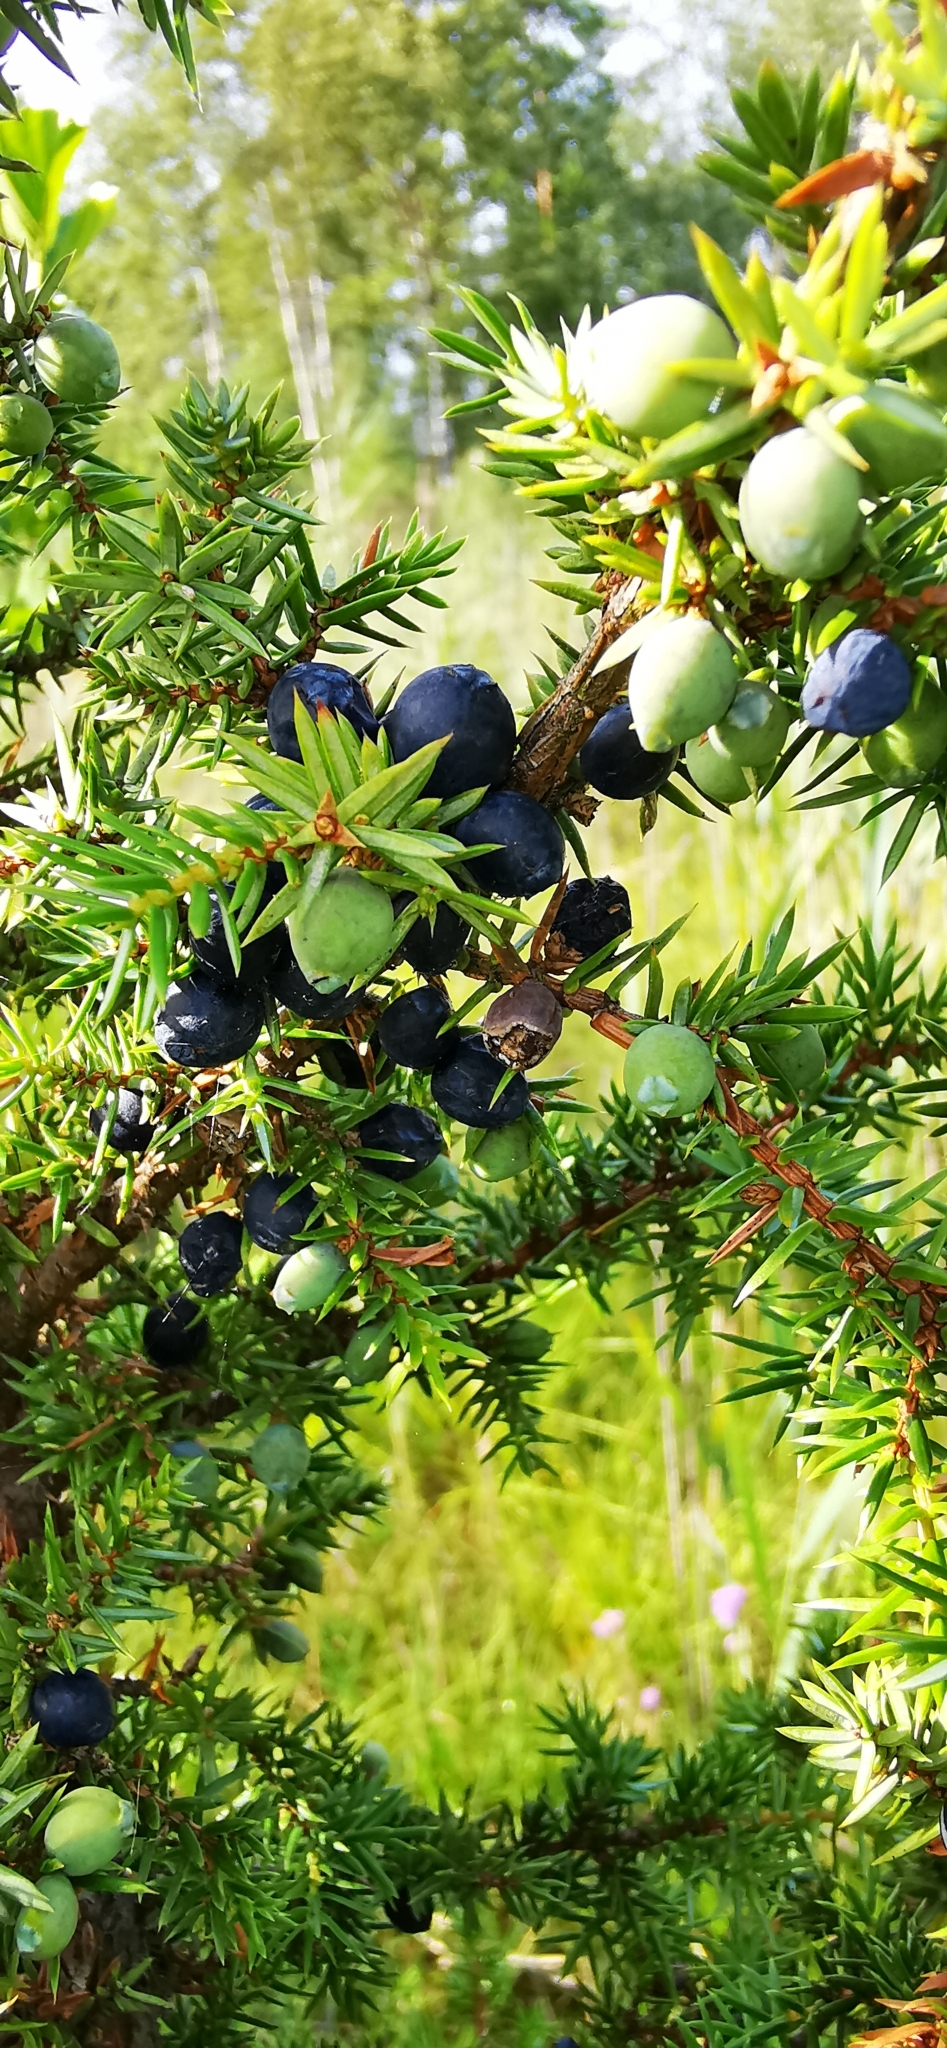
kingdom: Plantae
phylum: Tracheophyta
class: Pinopsida
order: Pinales
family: Cupressaceae
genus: Juniperus
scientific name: Juniperus communis
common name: Common juniper
